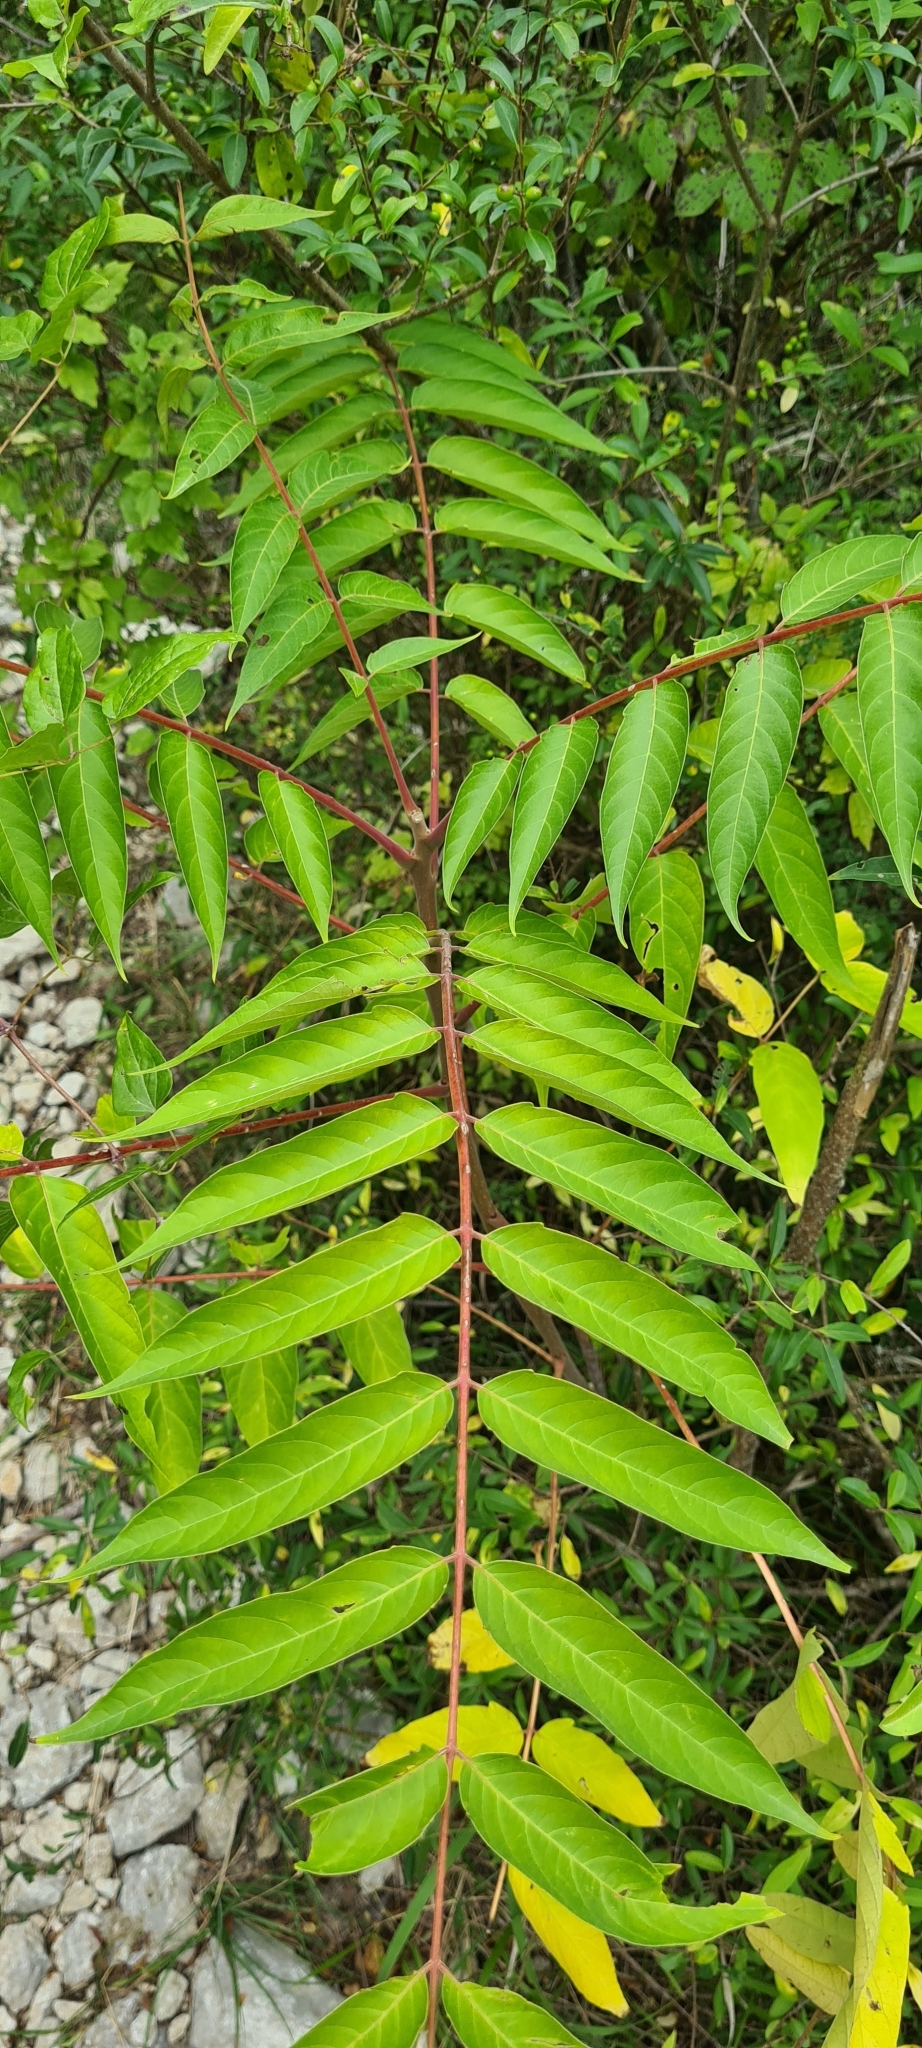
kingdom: Plantae
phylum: Tracheophyta
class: Magnoliopsida
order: Sapindales
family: Simaroubaceae
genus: Ailanthus
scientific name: Ailanthus altissima
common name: Tree-of-heaven
